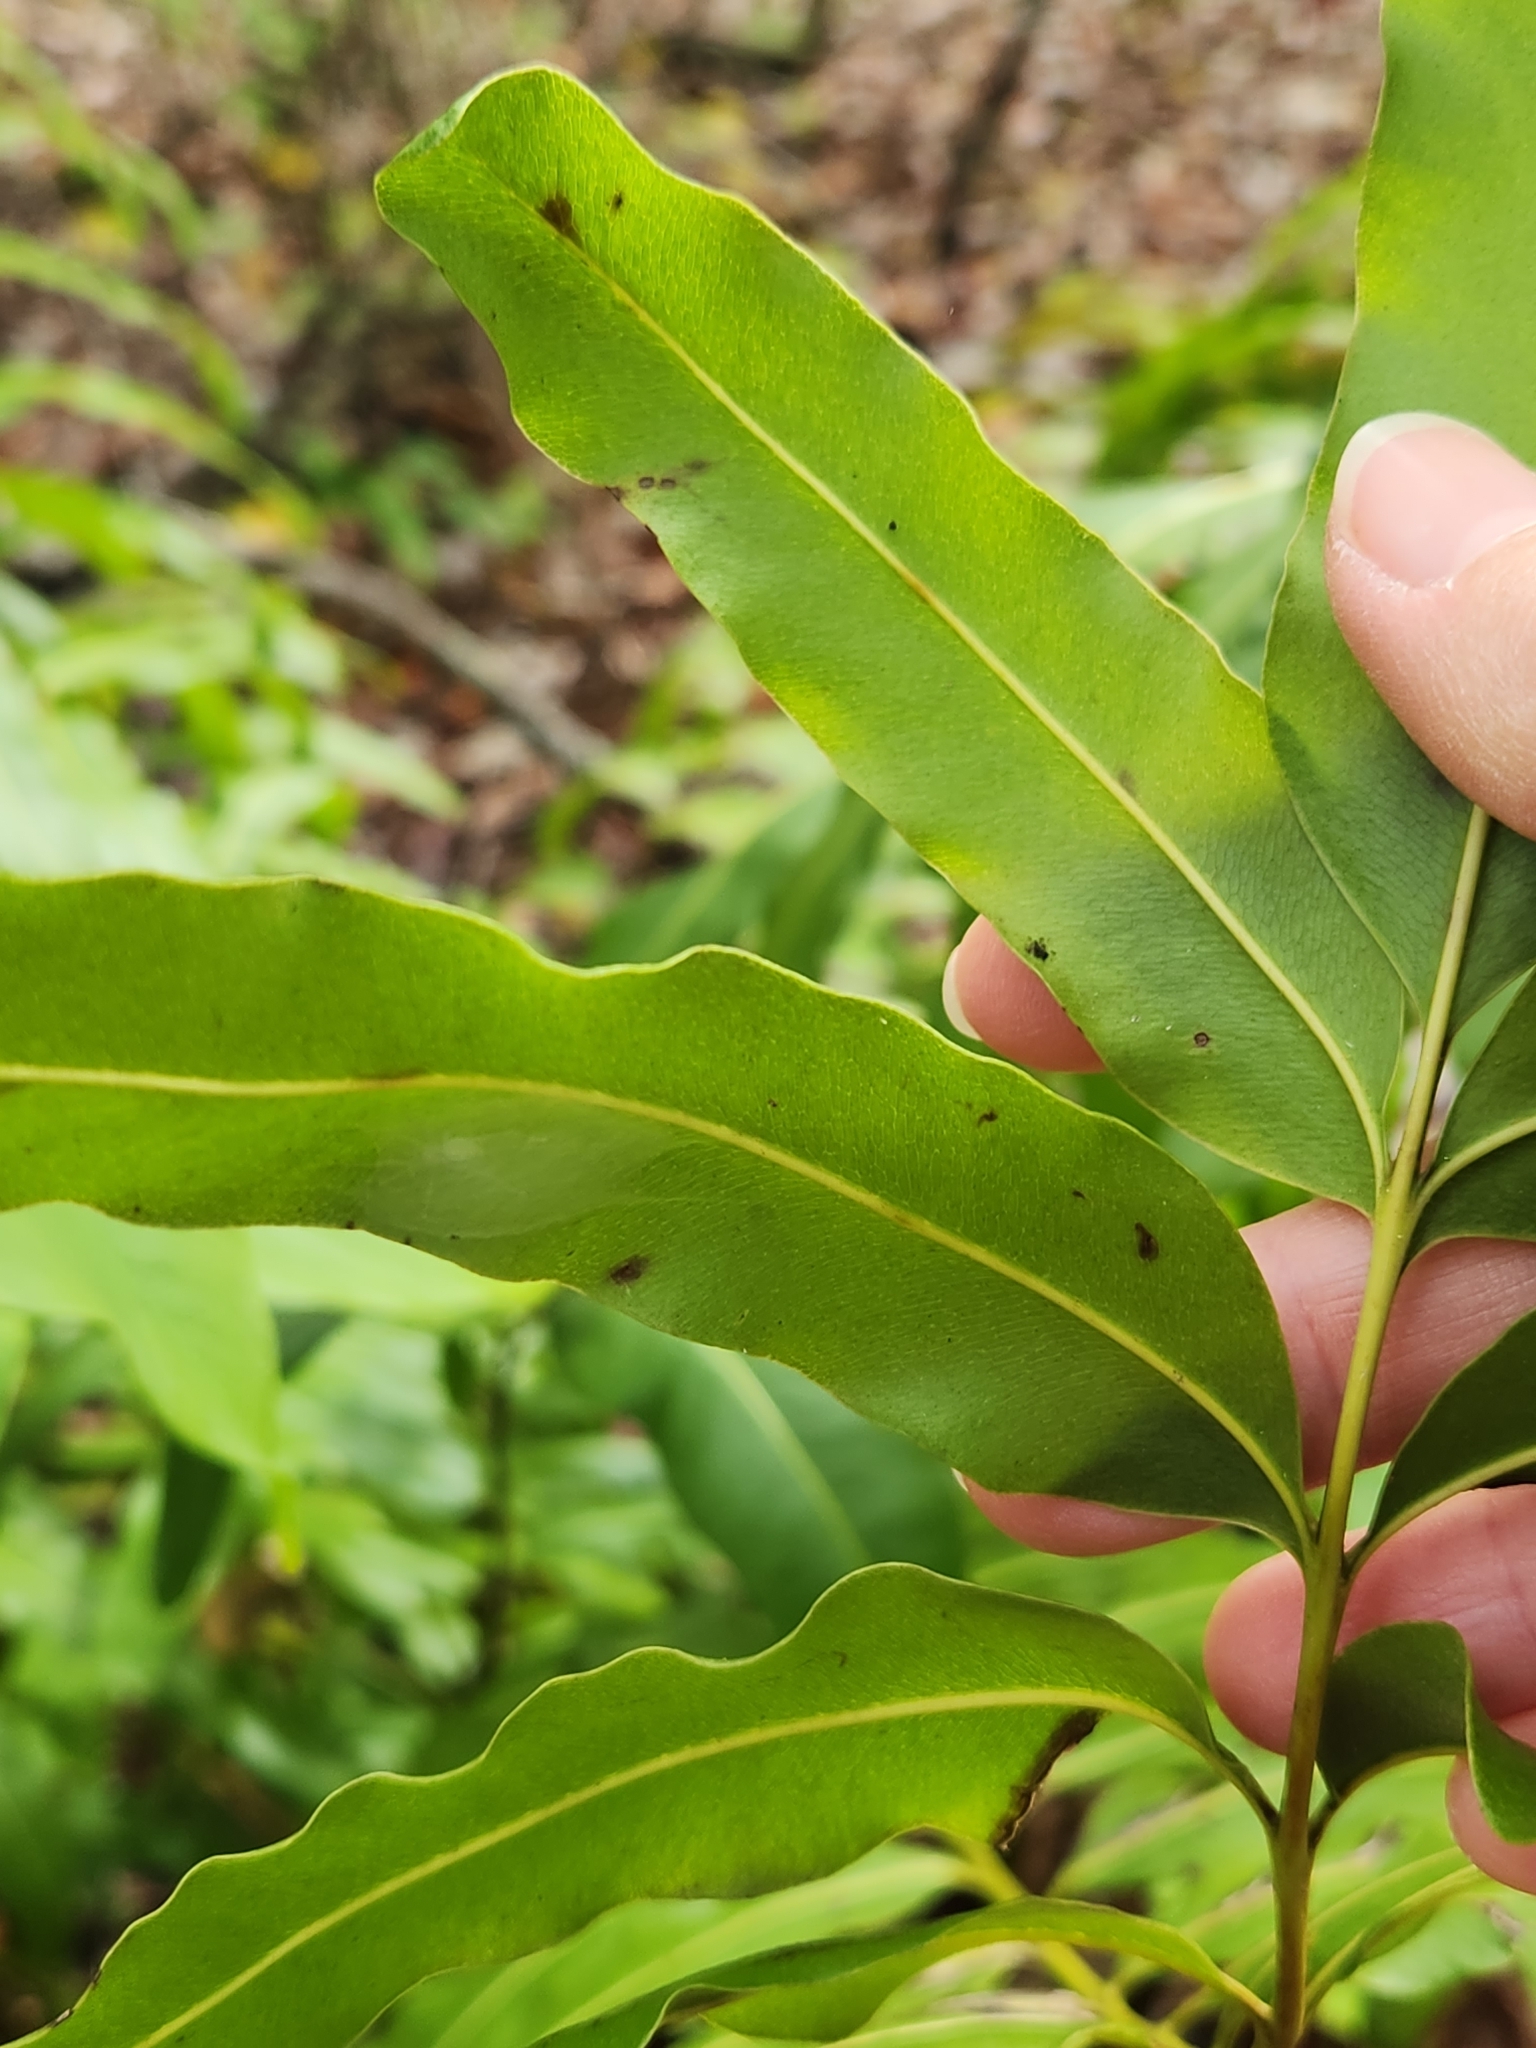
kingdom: Plantae
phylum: Tracheophyta
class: Polypodiopsida
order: Polypodiales
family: Pteridaceae
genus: Acrostichum
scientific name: Acrostichum danaeifolium
